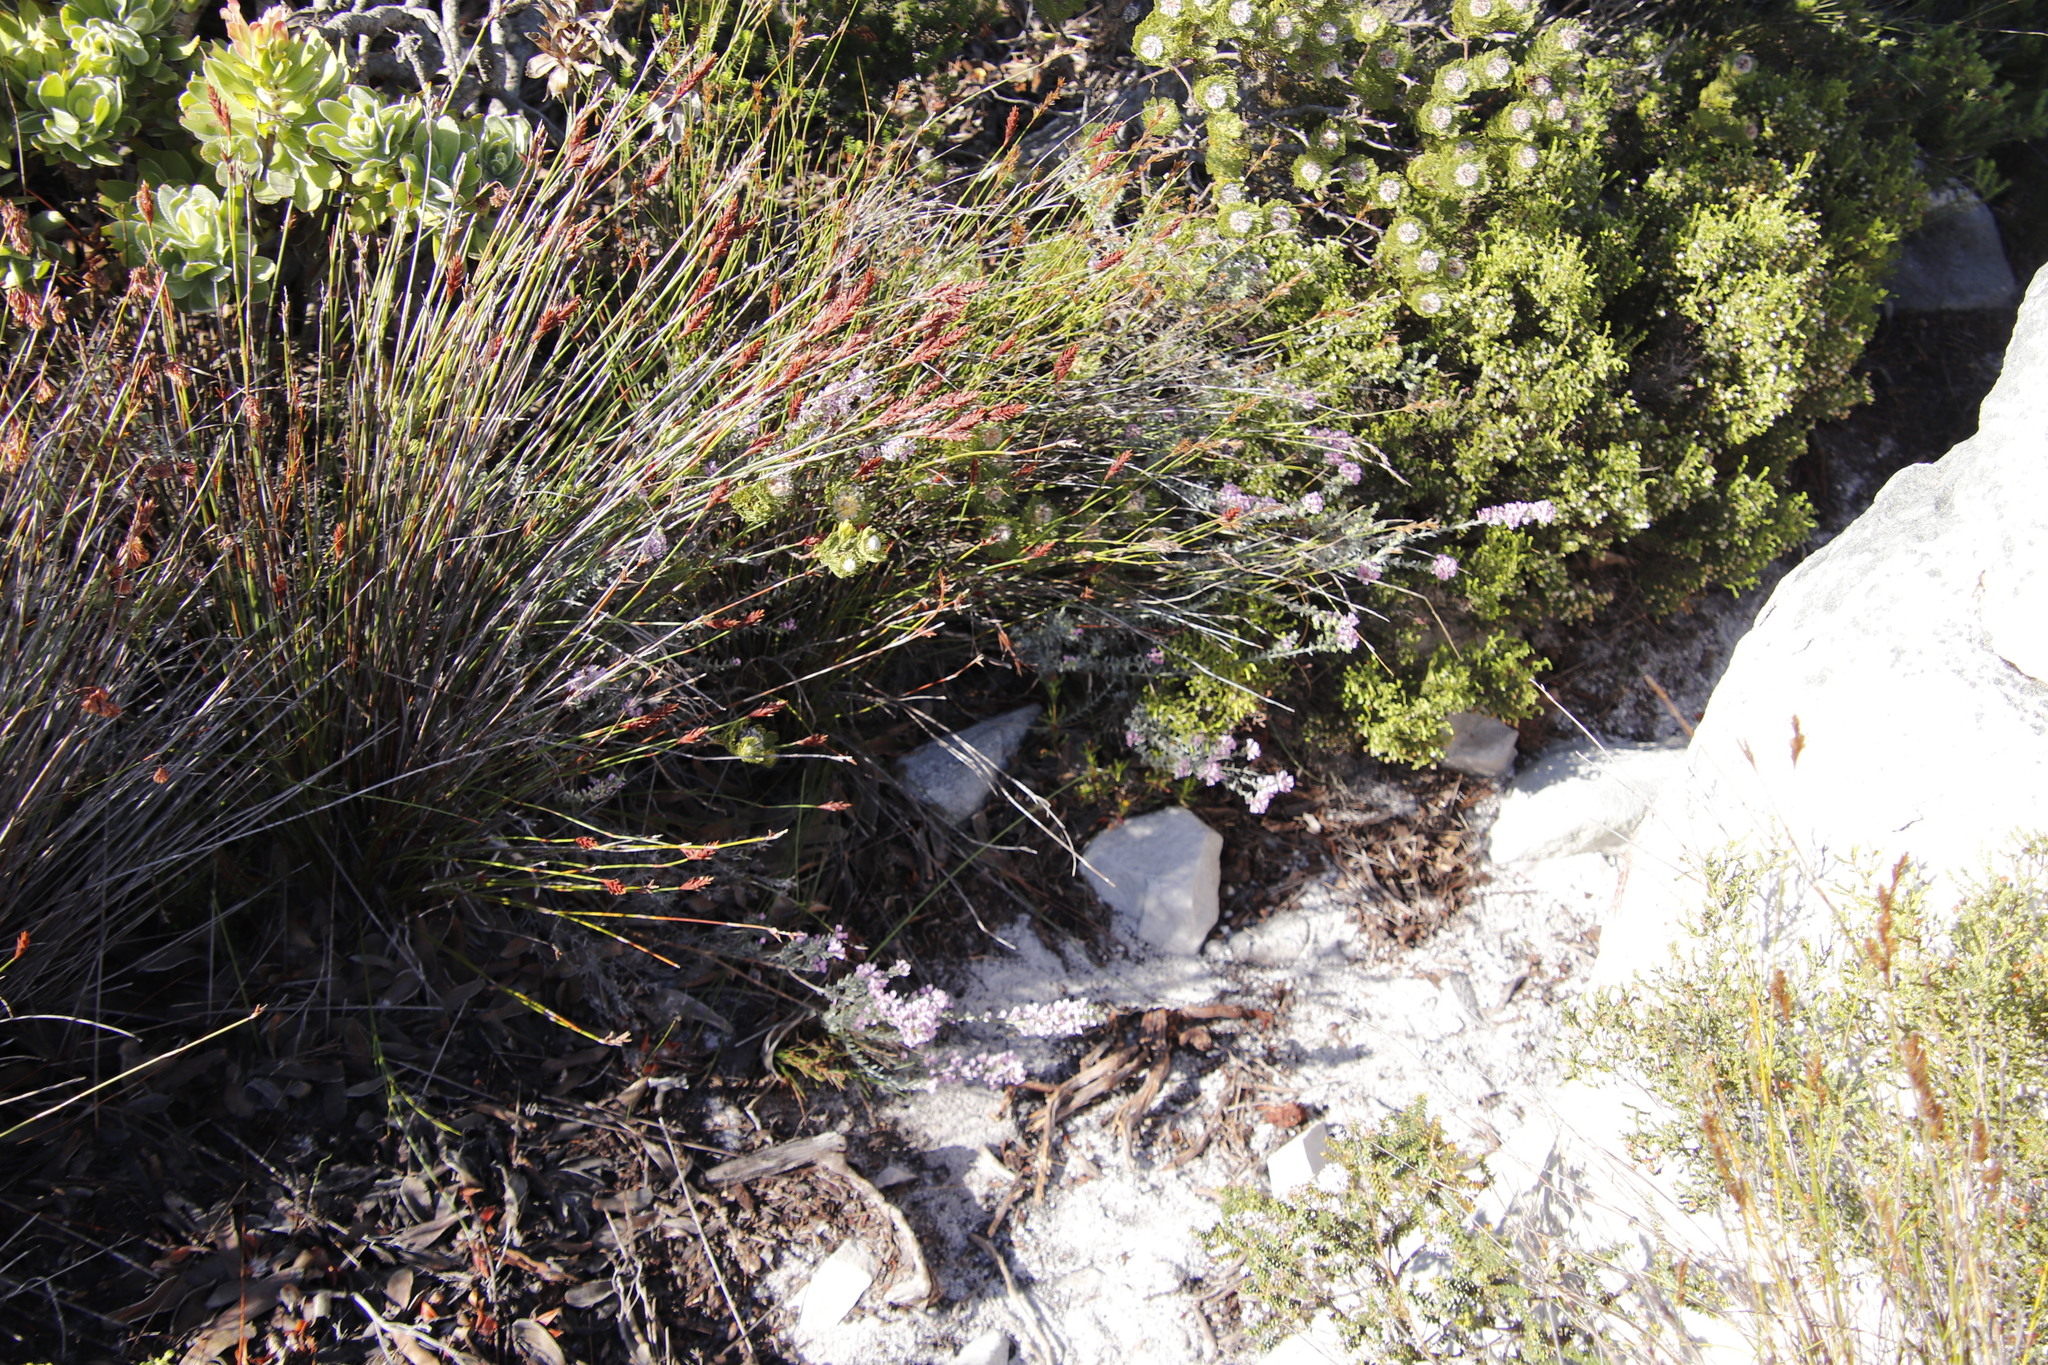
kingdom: Plantae
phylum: Tracheophyta
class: Magnoliopsida
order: Fabales
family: Fabaceae
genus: Amphithalea
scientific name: Amphithalea ericifolia
